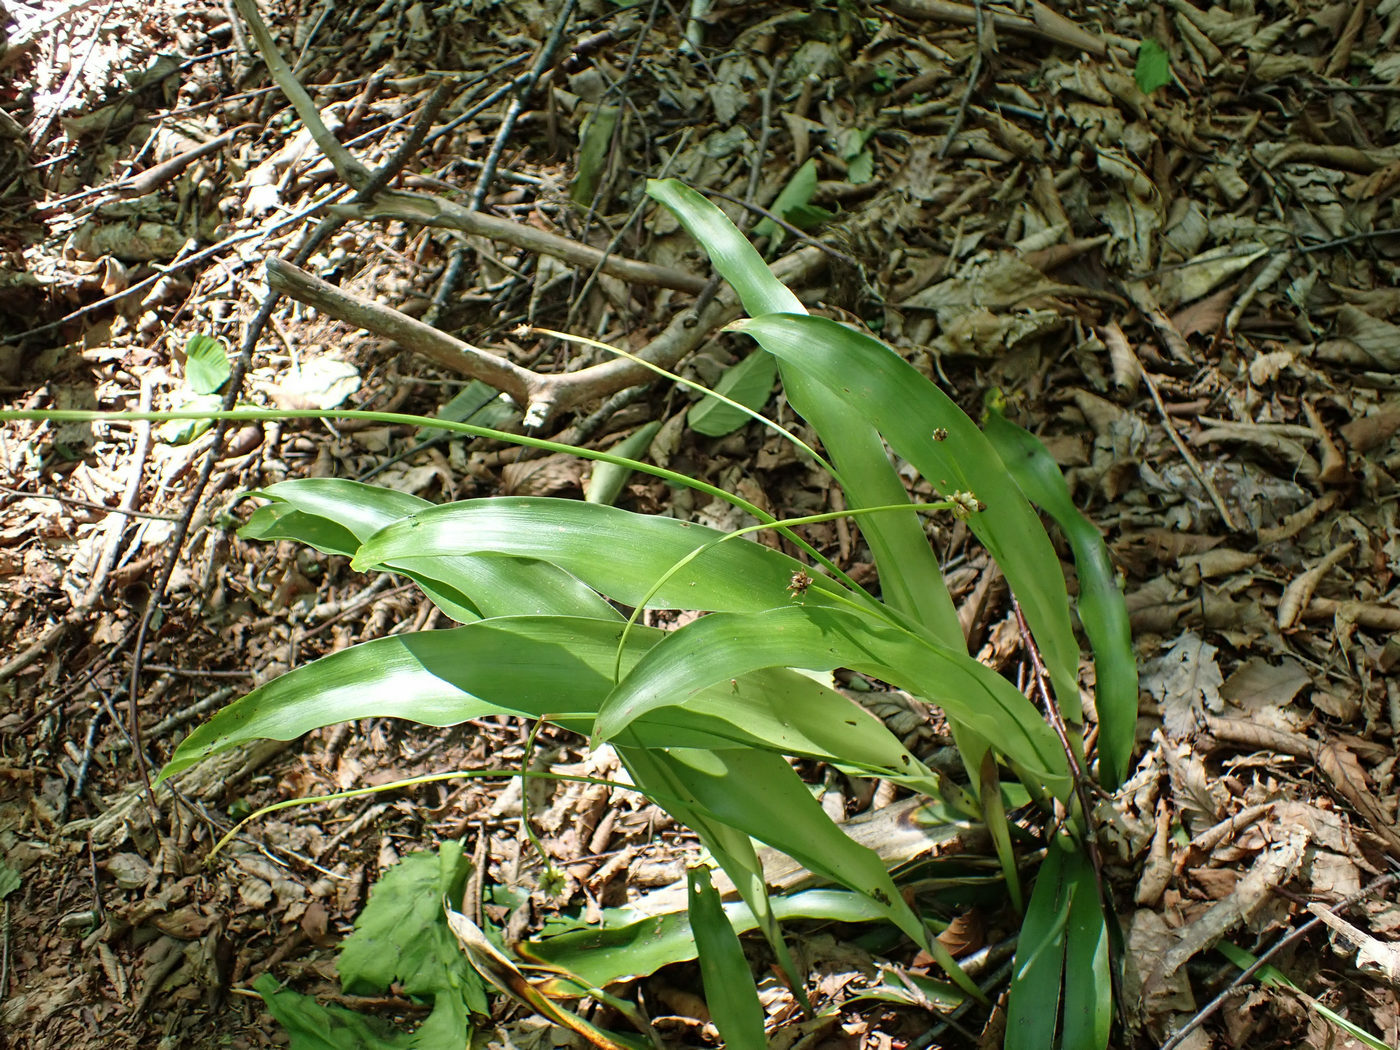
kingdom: Plantae
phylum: Tracheophyta
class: Liliopsida
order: Poales
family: Cyperaceae
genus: Carex
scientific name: Carex fraseriana
